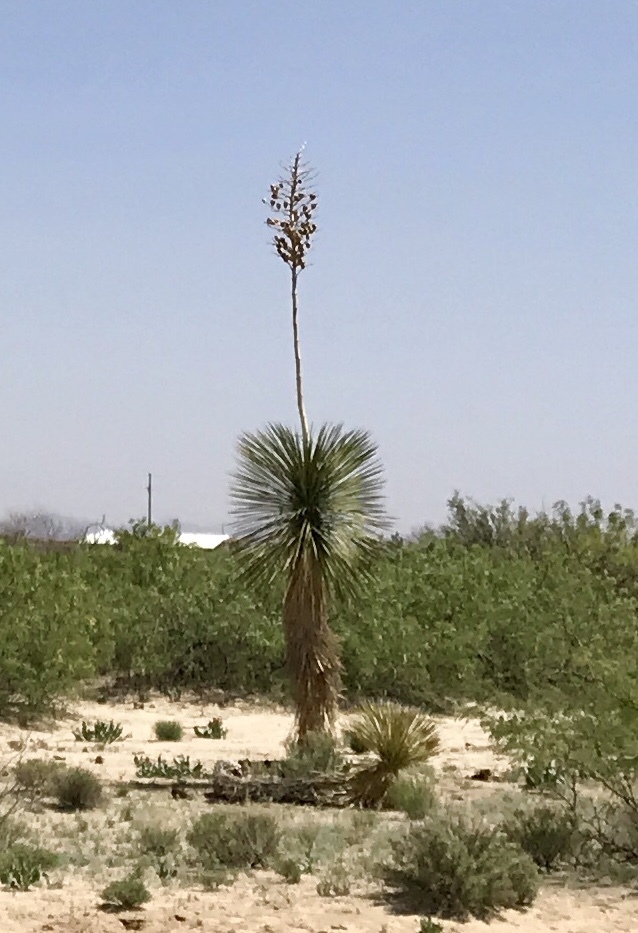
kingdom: Plantae
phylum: Tracheophyta
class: Liliopsida
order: Asparagales
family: Asparagaceae
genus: Yucca
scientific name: Yucca elata
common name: Palmella
